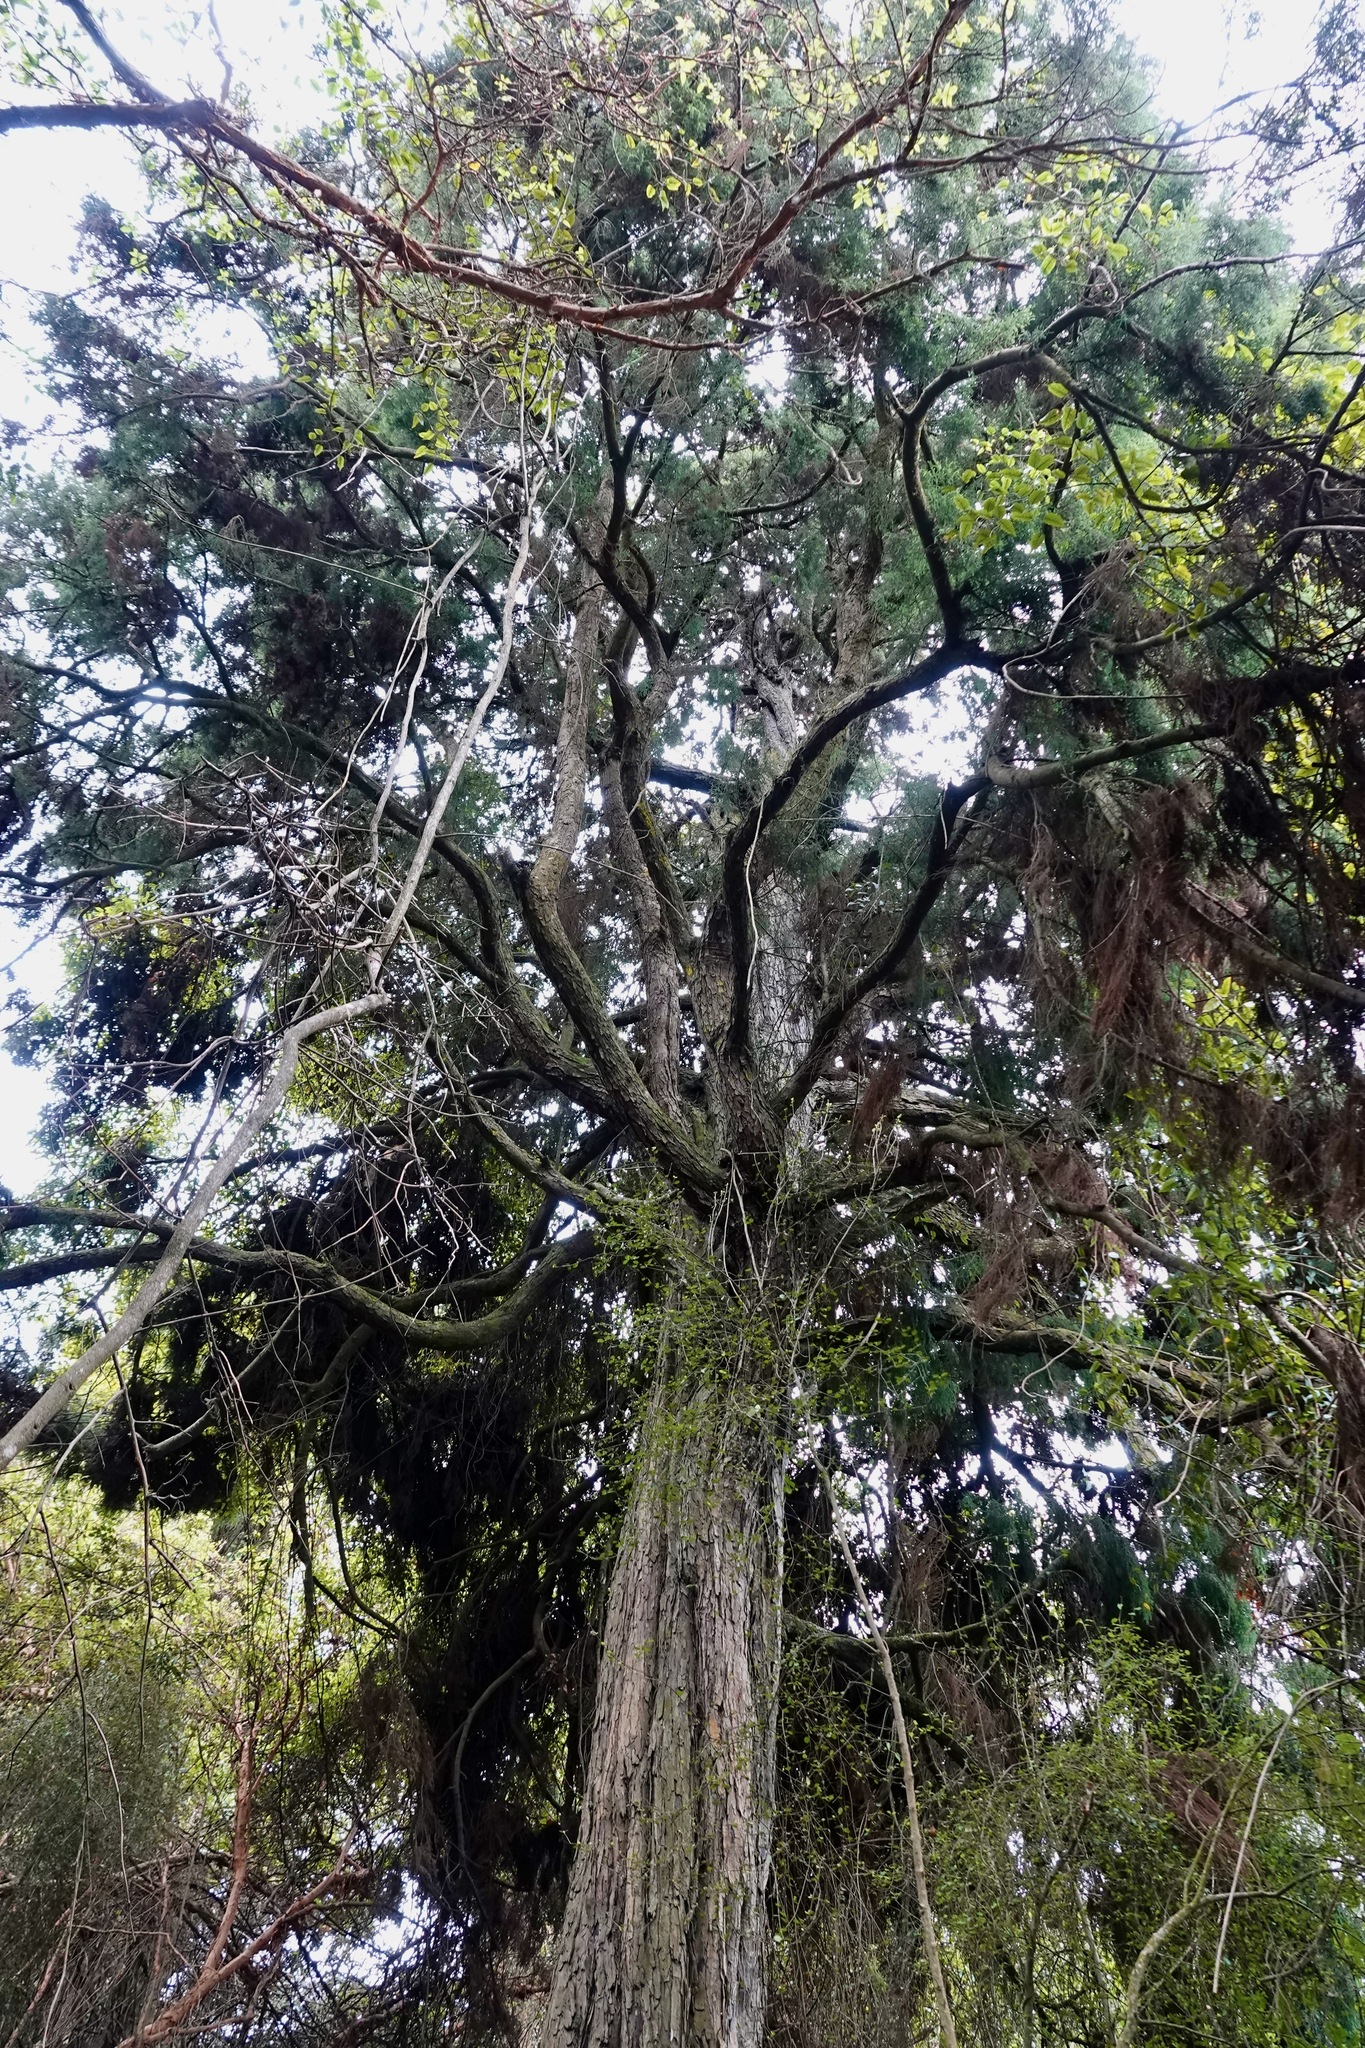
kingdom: Plantae
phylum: Tracheophyta
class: Pinopsida
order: Pinales
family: Podocarpaceae
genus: Podocarpus
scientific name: Podocarpus totara
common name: Totara
